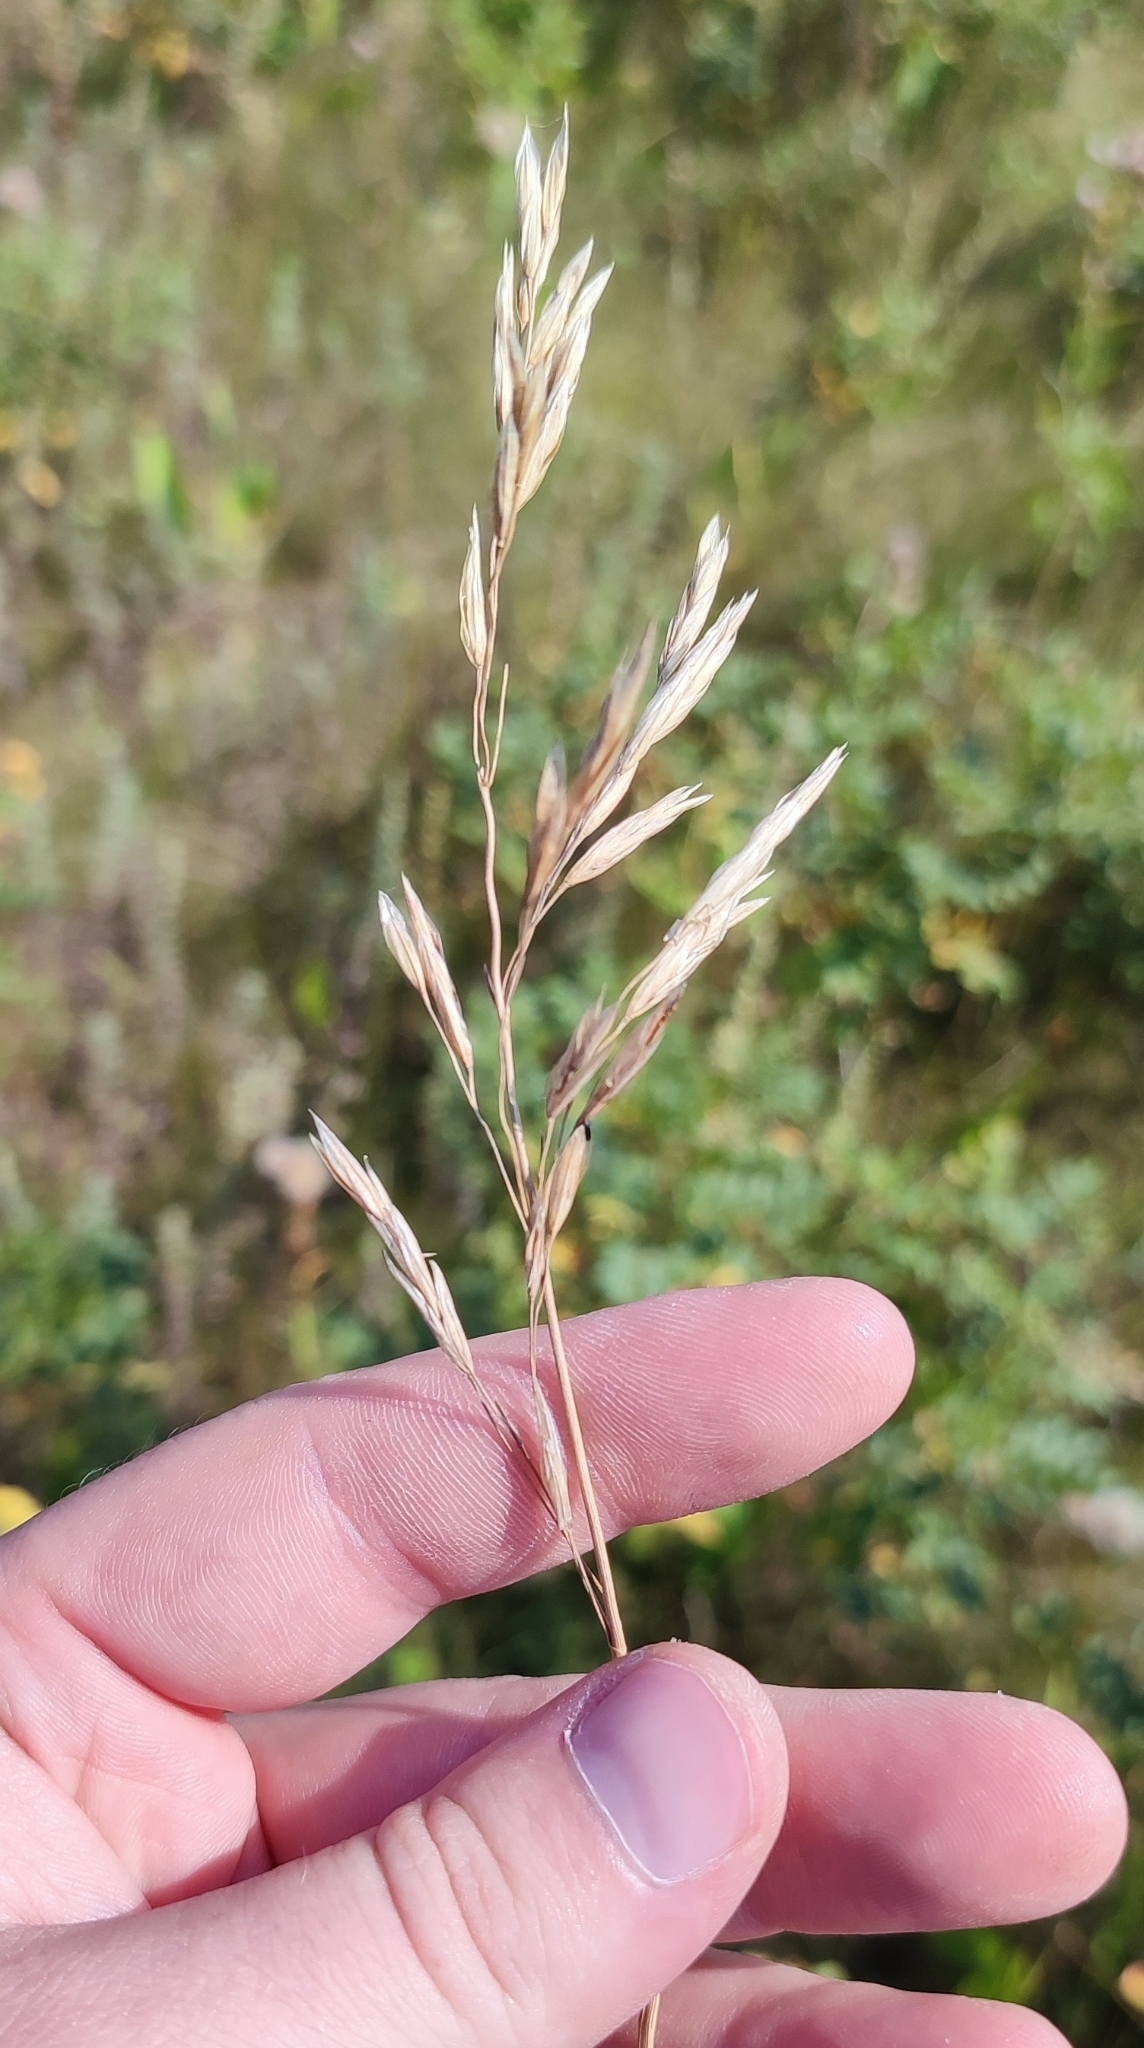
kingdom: Plantae
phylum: Tracheophyta
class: Liliopsida
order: Poales
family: Poaceae
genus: Bromus
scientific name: Bromus inermis
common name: Smooth brome
